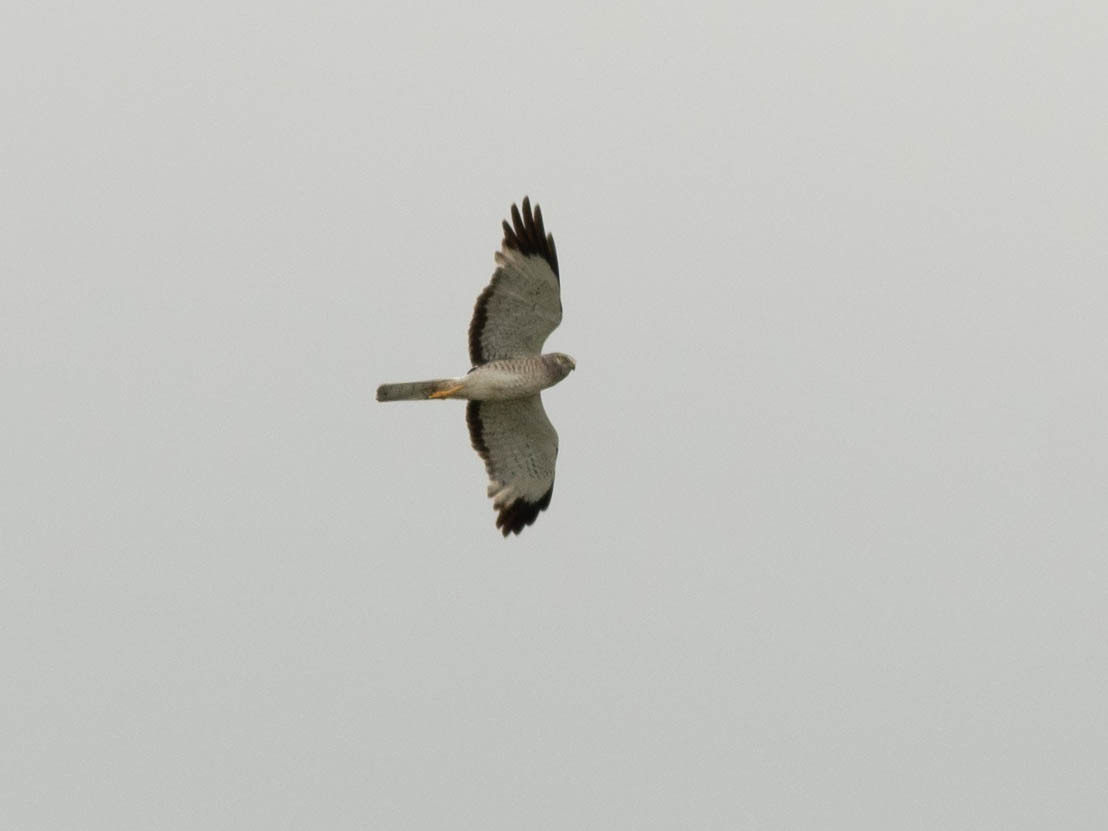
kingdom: Animalia
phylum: Chordata
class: Aves
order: Accipitriformes
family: Accipitridae
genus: Circus
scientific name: Circus cyaneus
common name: Hen harrier
